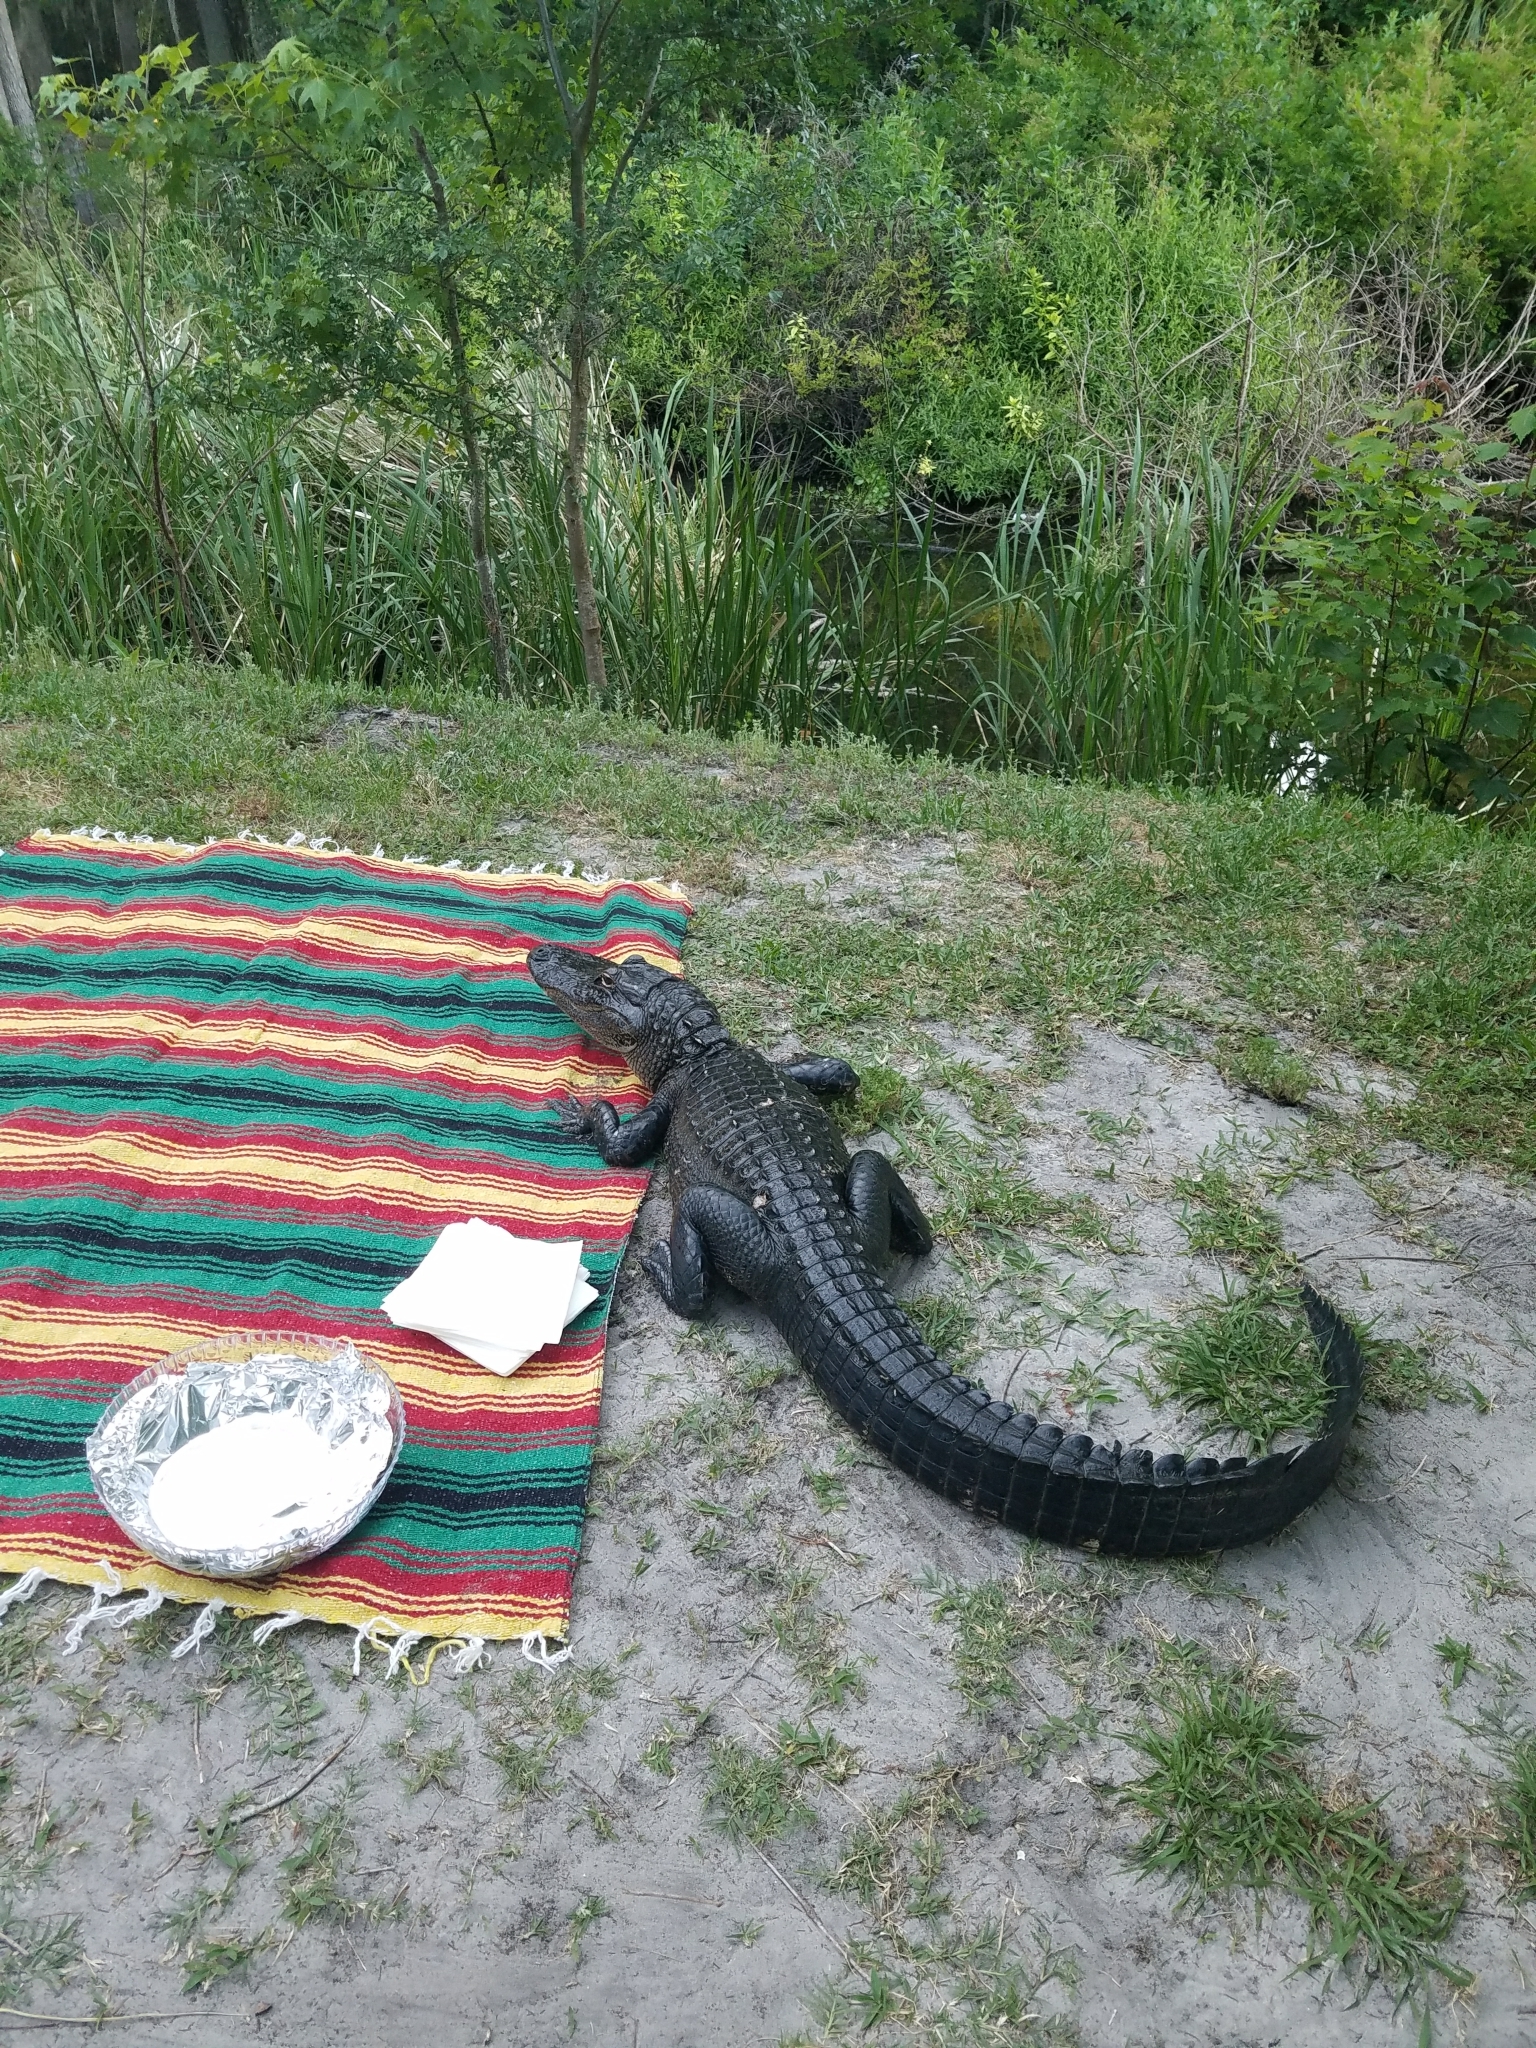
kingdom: Animalia
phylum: Chordata
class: Crocodylia
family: Alligatoridae
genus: Alligator
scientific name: Alligator mississippiensis
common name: American alligator
